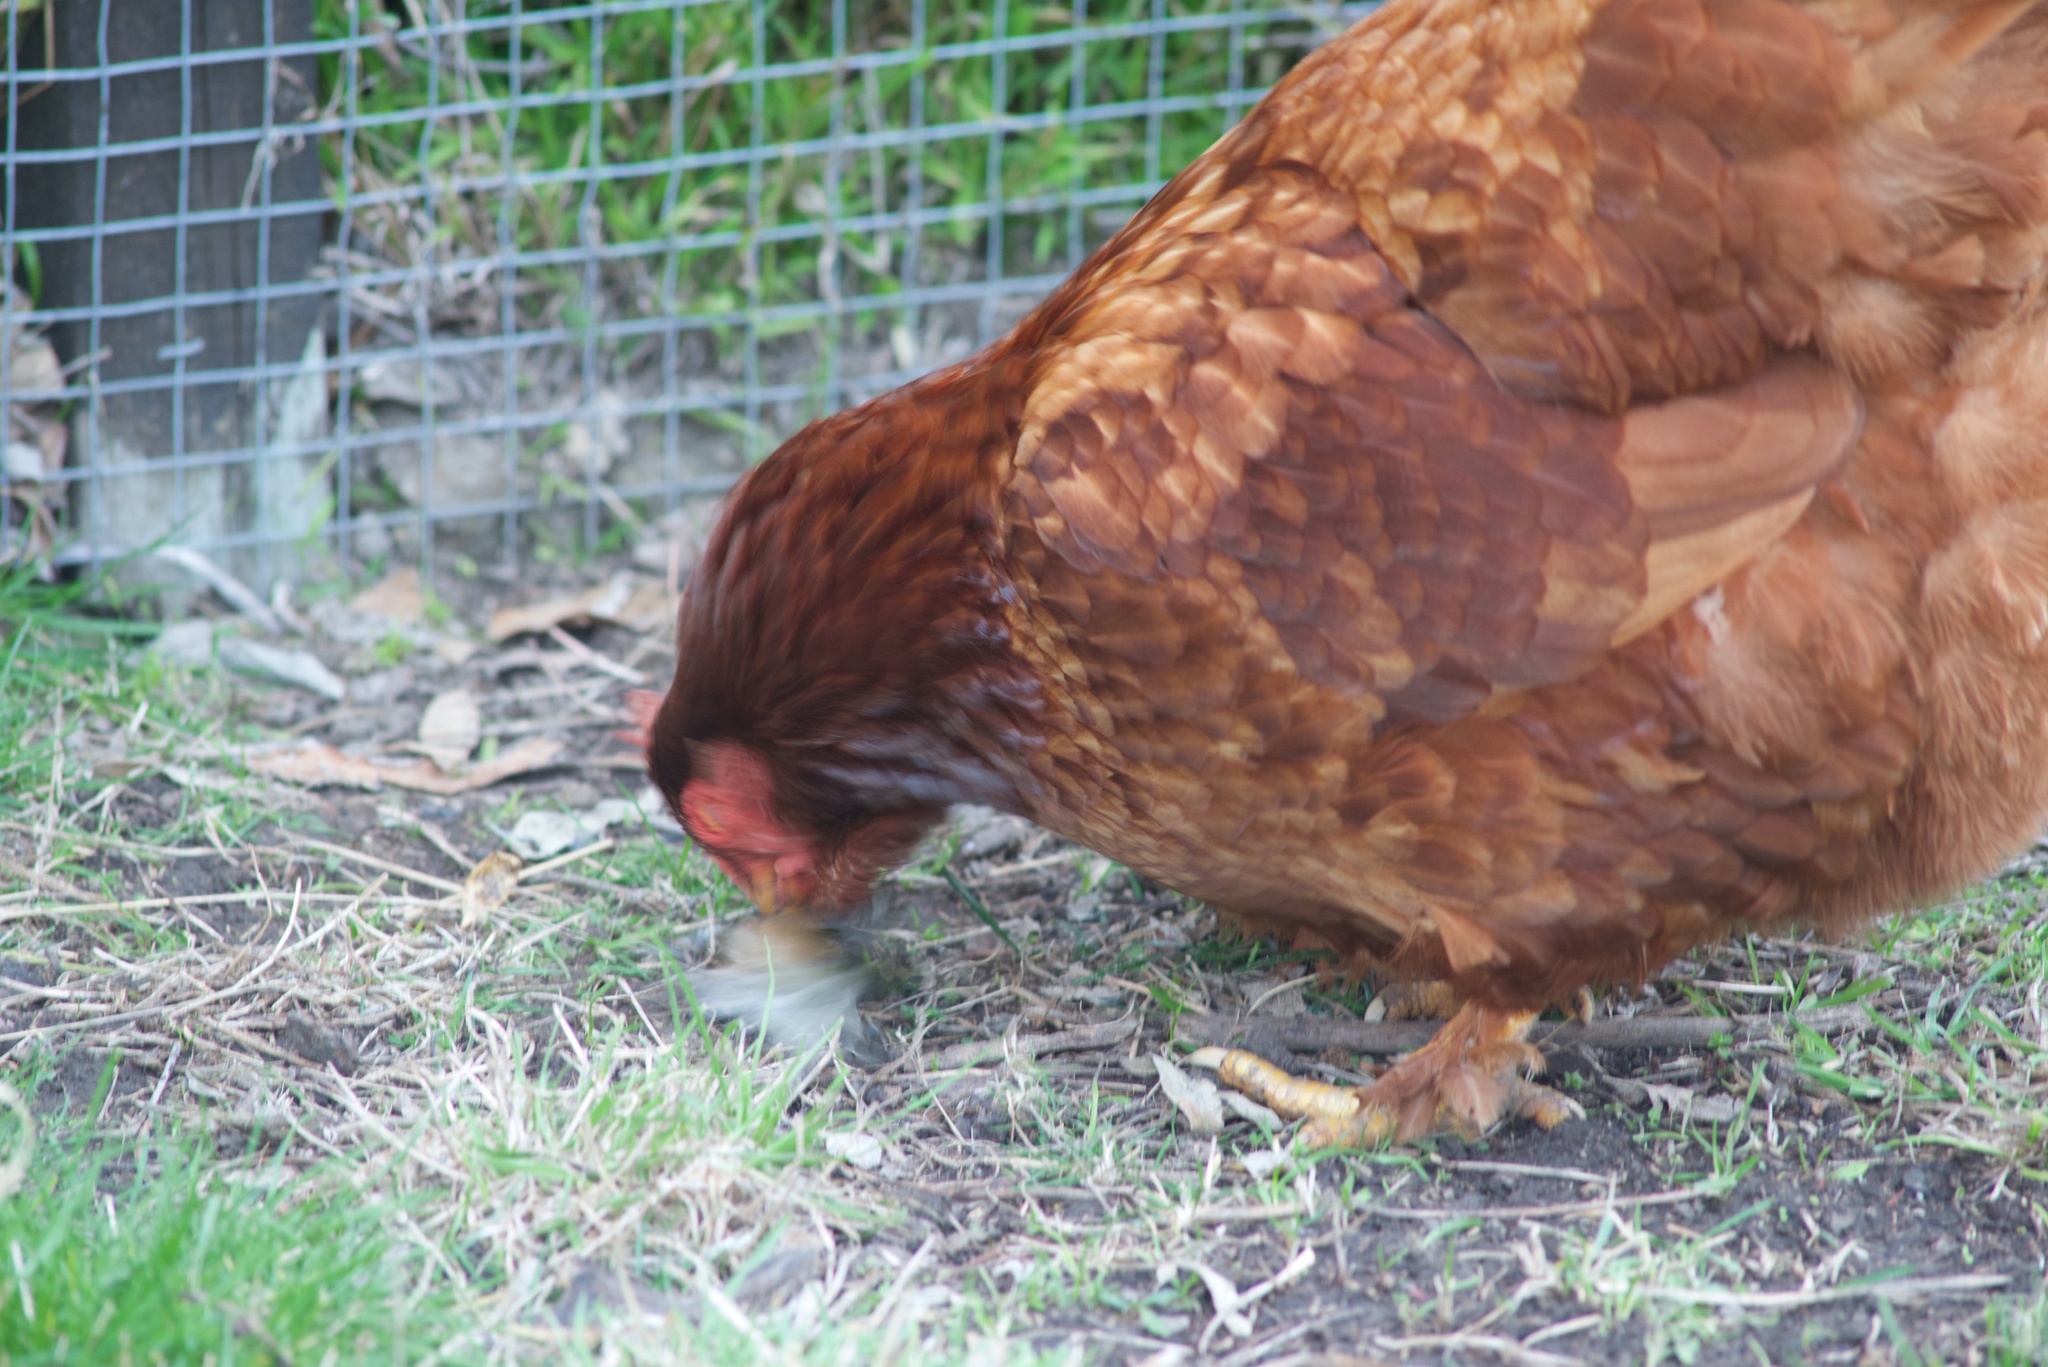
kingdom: Animalia
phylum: Chordata
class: Aves
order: Passeriformes
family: Zosteropidae
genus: Zosterops
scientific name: Zosterops lateralis
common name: Silvereye
